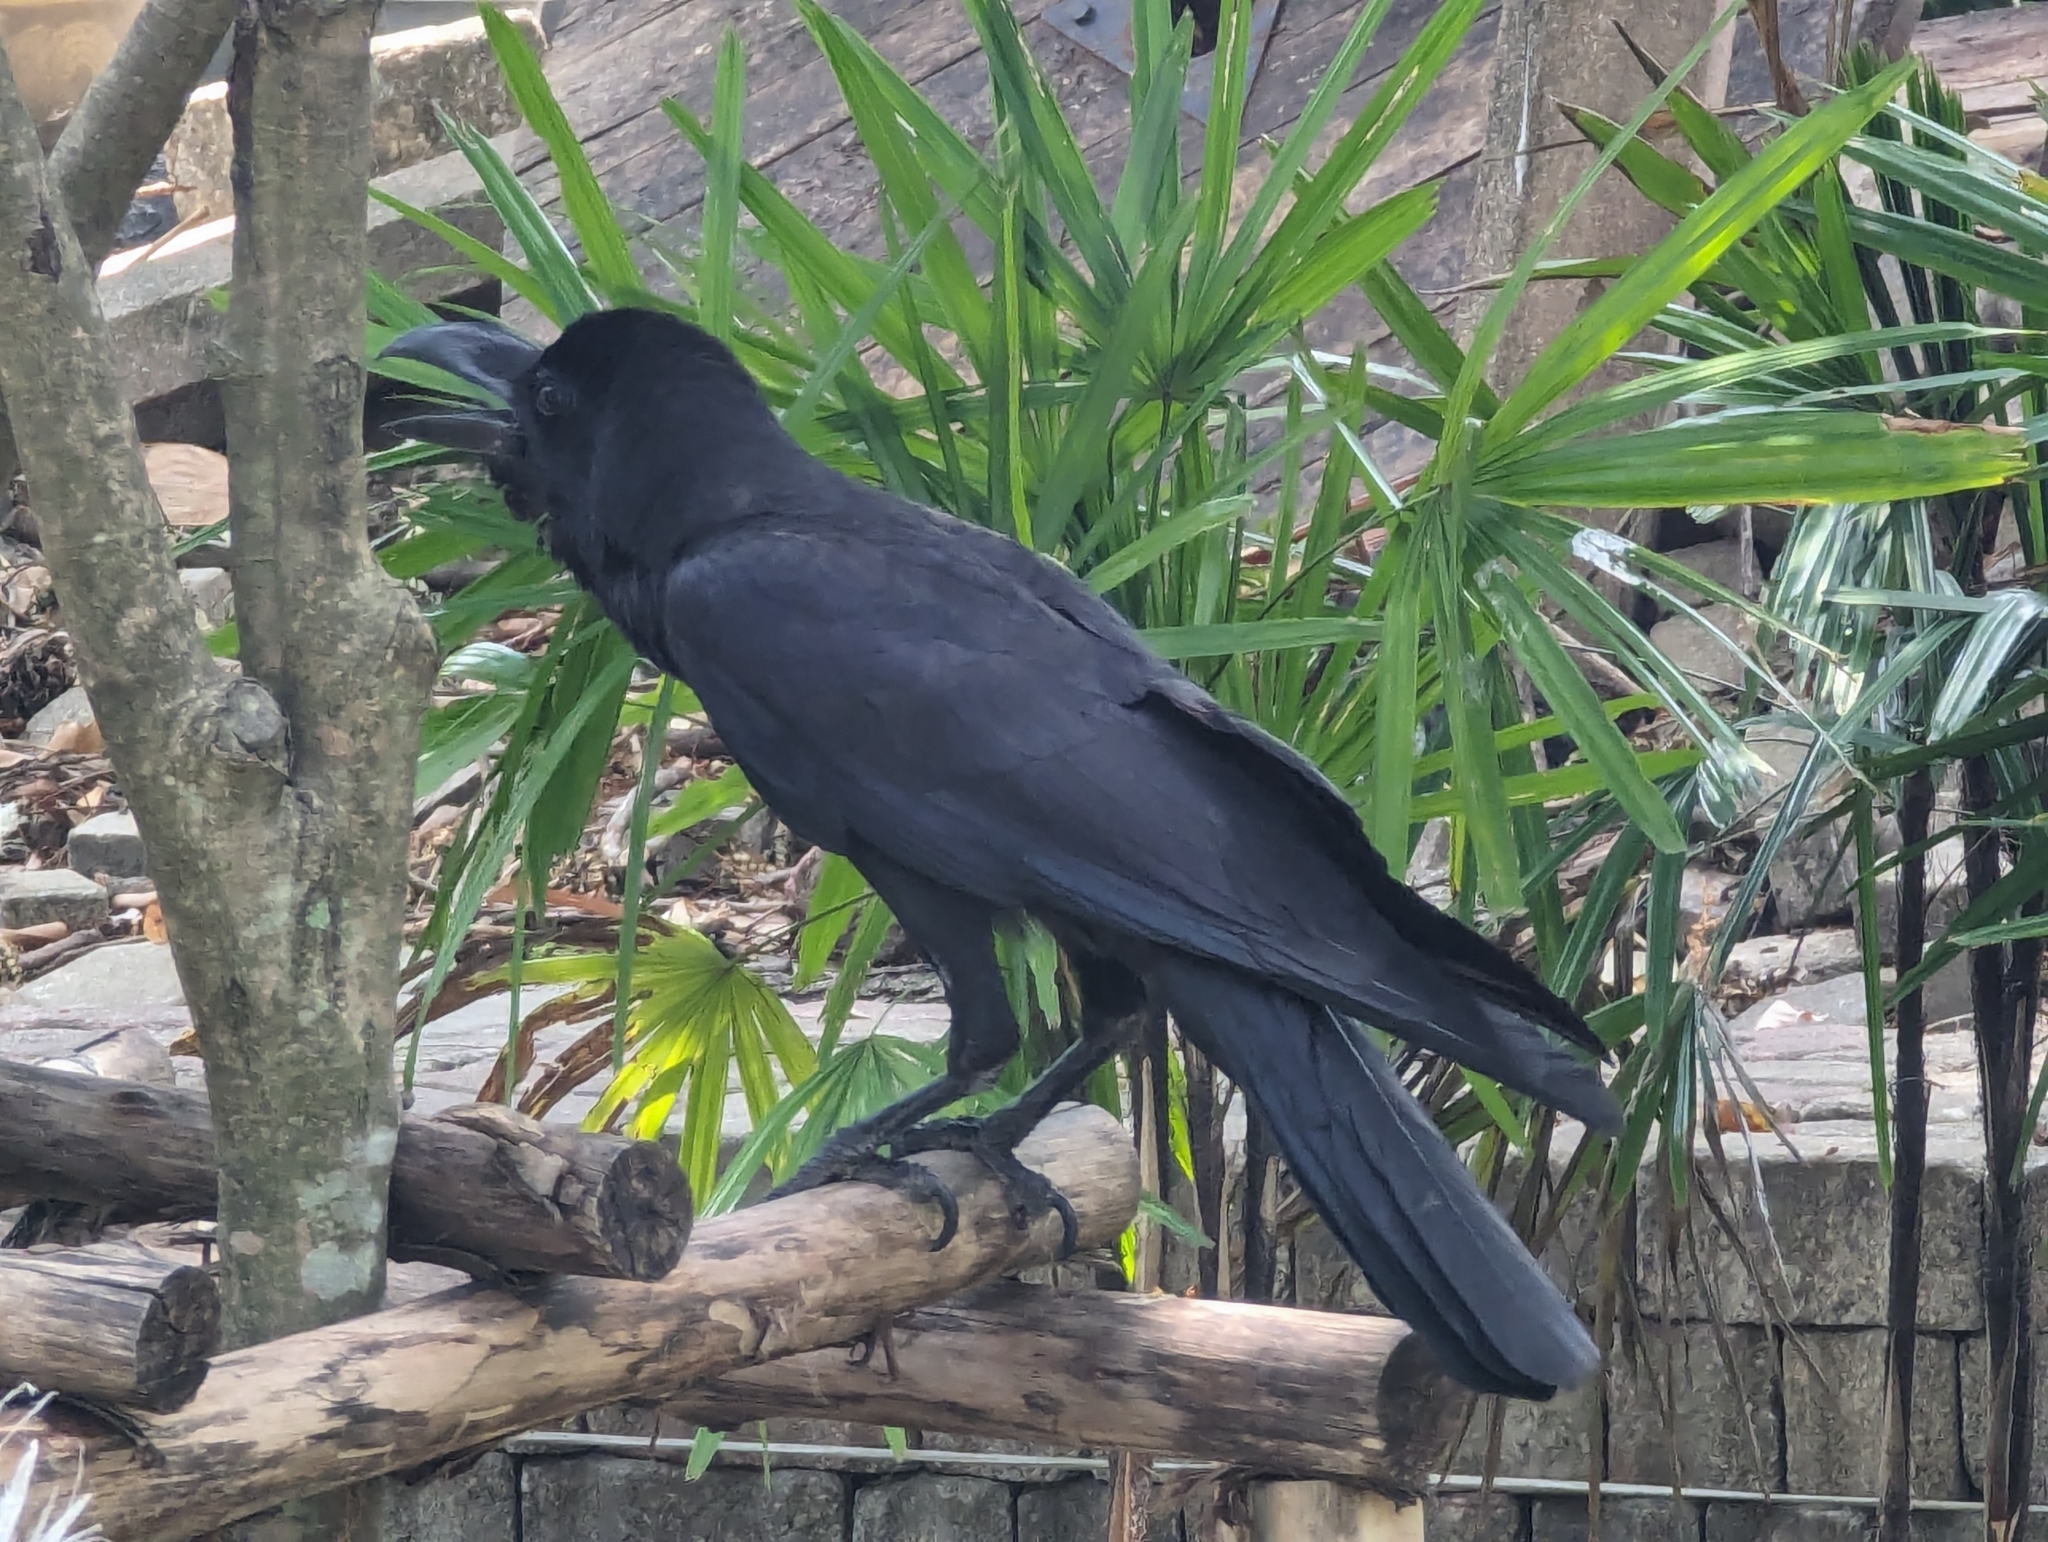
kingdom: Animalia
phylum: Chordata
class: Aves
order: Passeriformes
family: Corvidae
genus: Corvus
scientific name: Corvus macrorhynchos
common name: Large-billed crow
